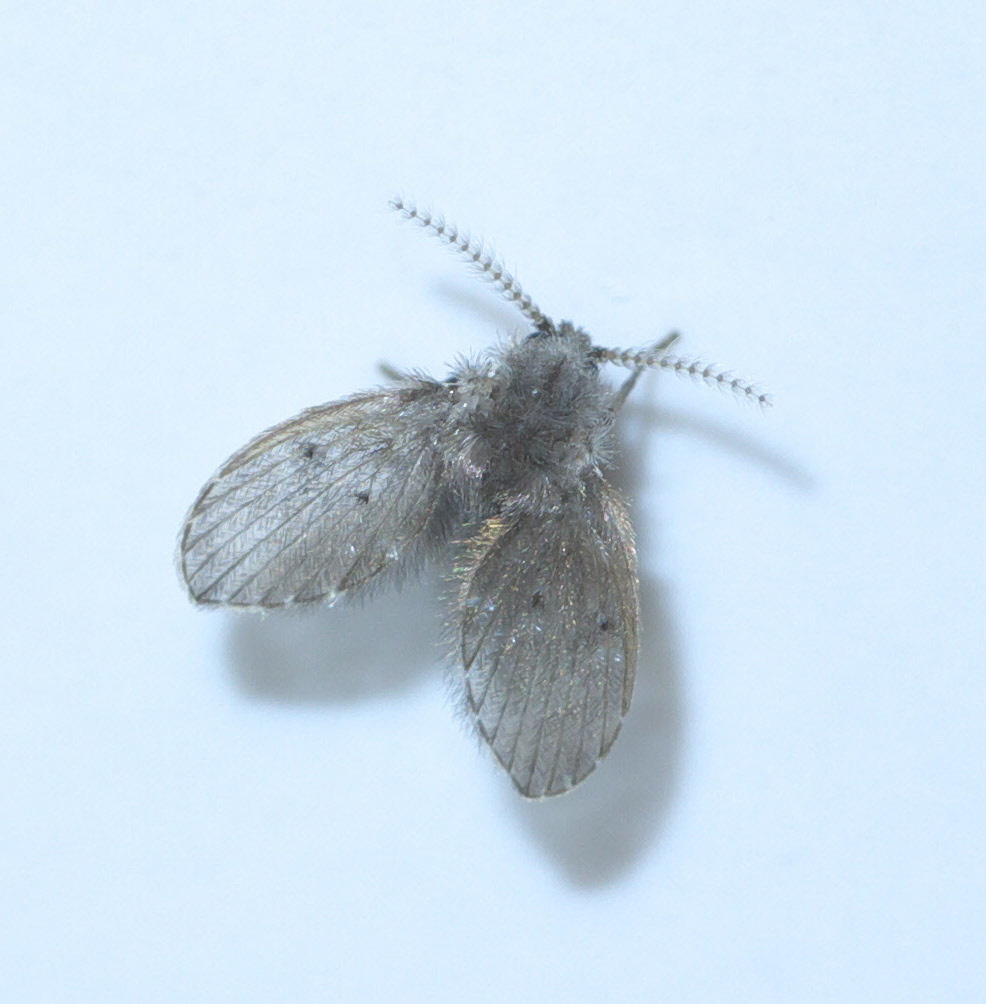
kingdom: Animalia
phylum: Arthropoda
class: Insecta
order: Diptera
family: Psychodidae
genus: Clogmia
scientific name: Clogmia albipunctatus
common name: White-spotted moth fly
